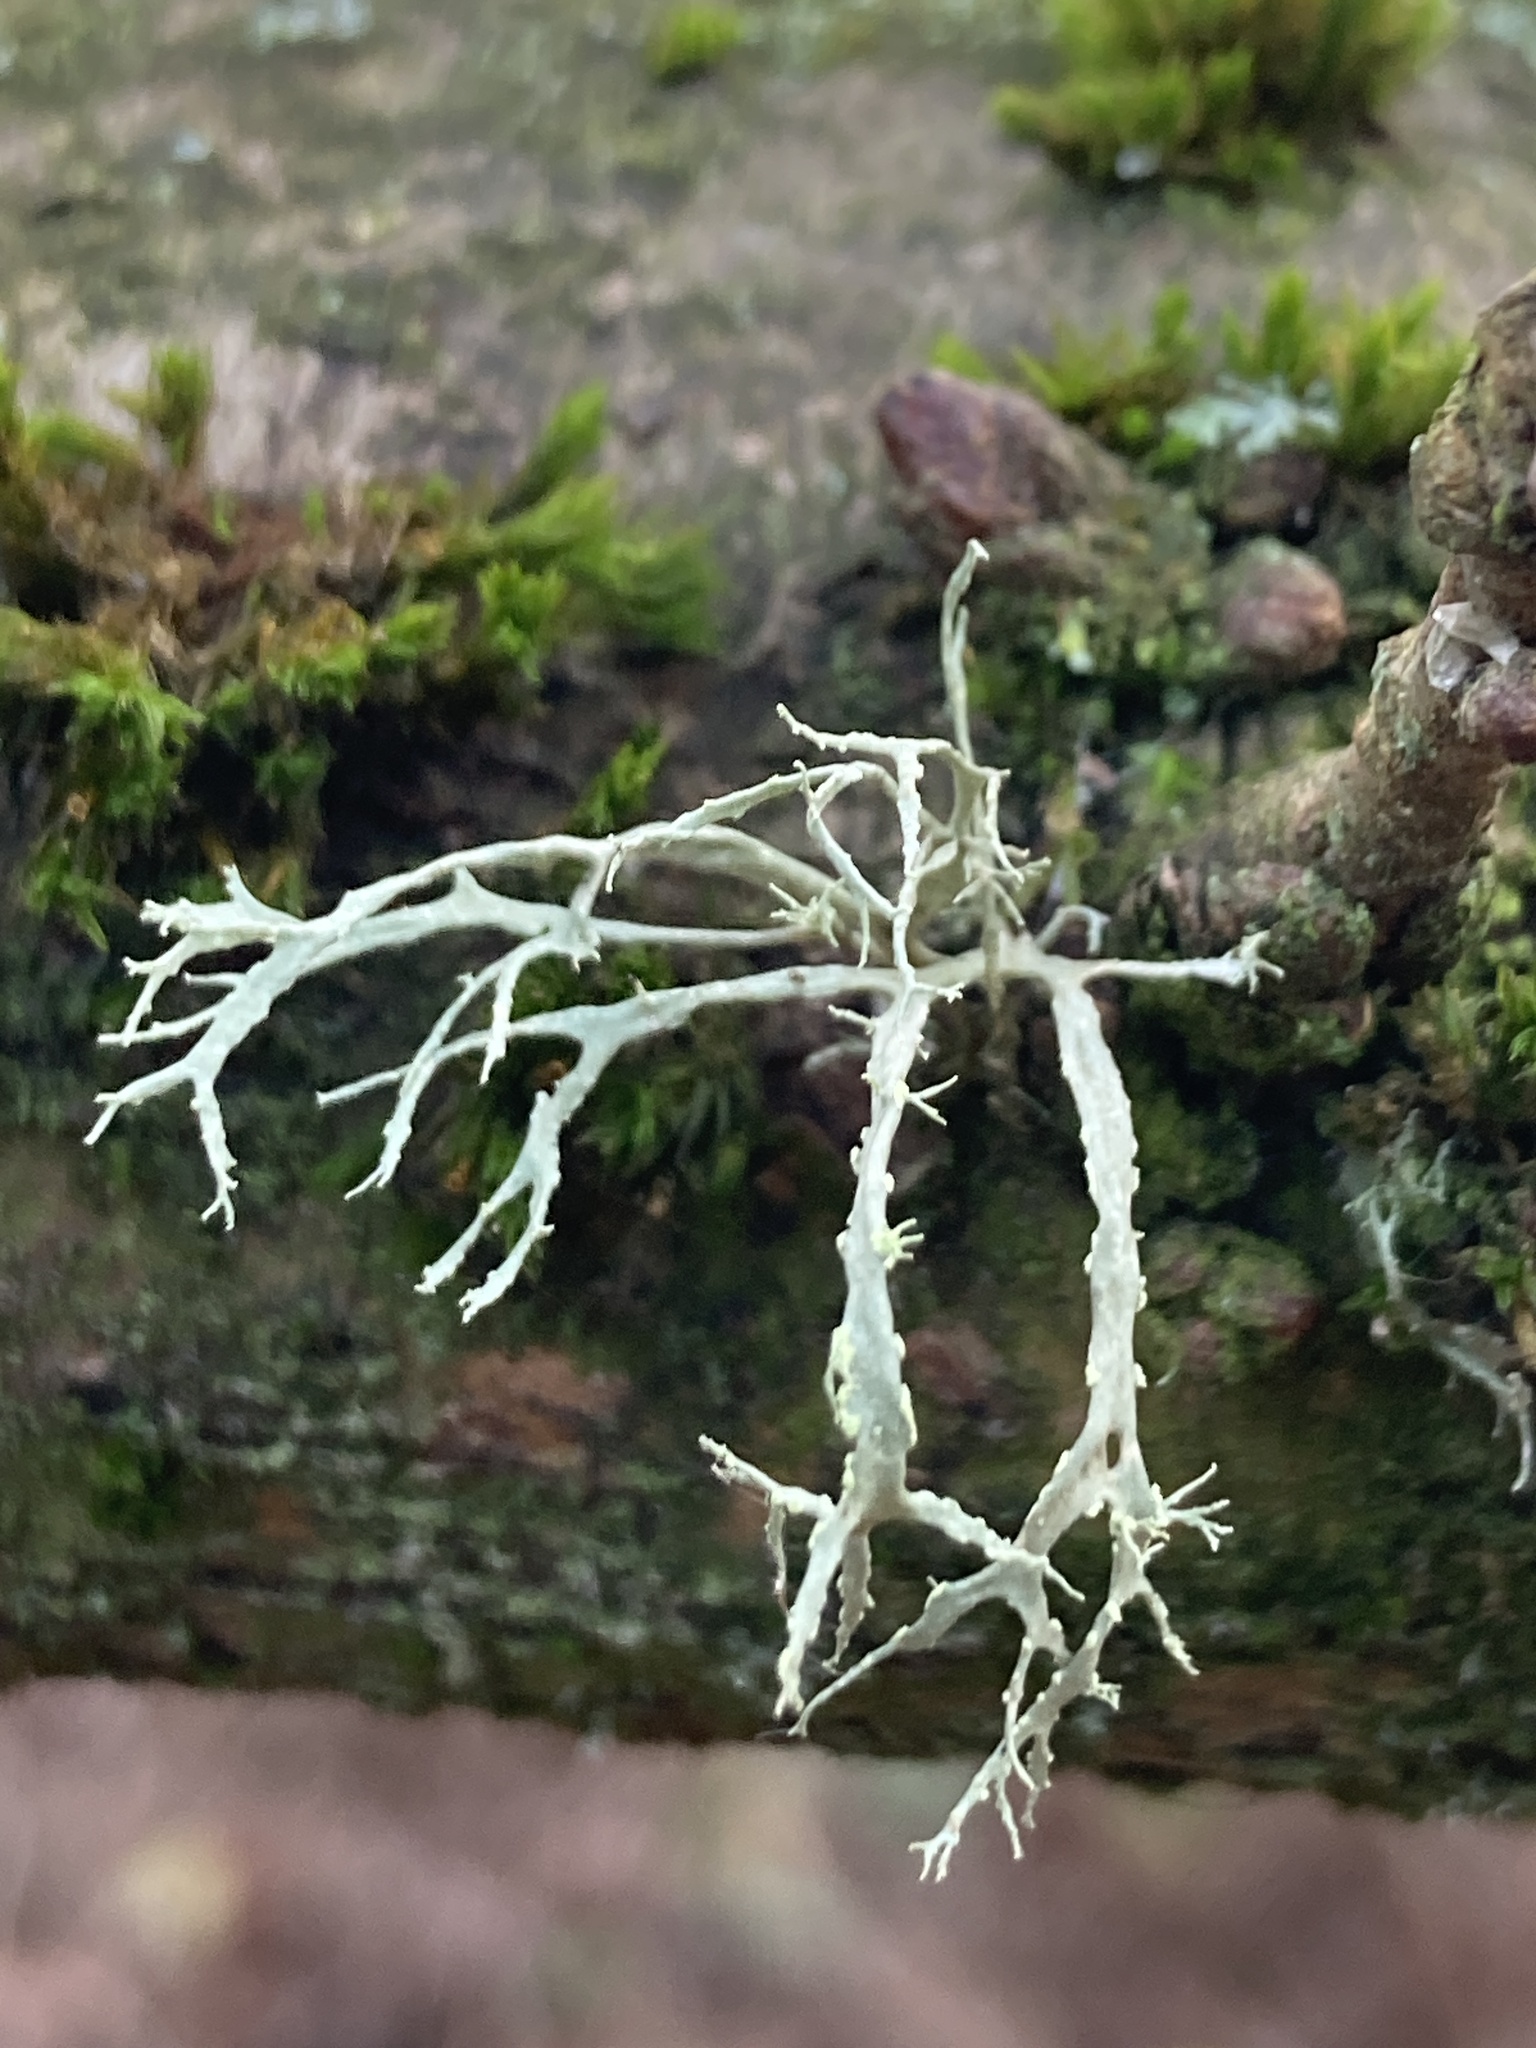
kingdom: Fungi
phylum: Ascomycota
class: Lecanoromycetes
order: Lecanorales
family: Ramalinaceae
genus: Ramalina
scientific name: Ramalina farinacea
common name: Farinose cartilage lichen
